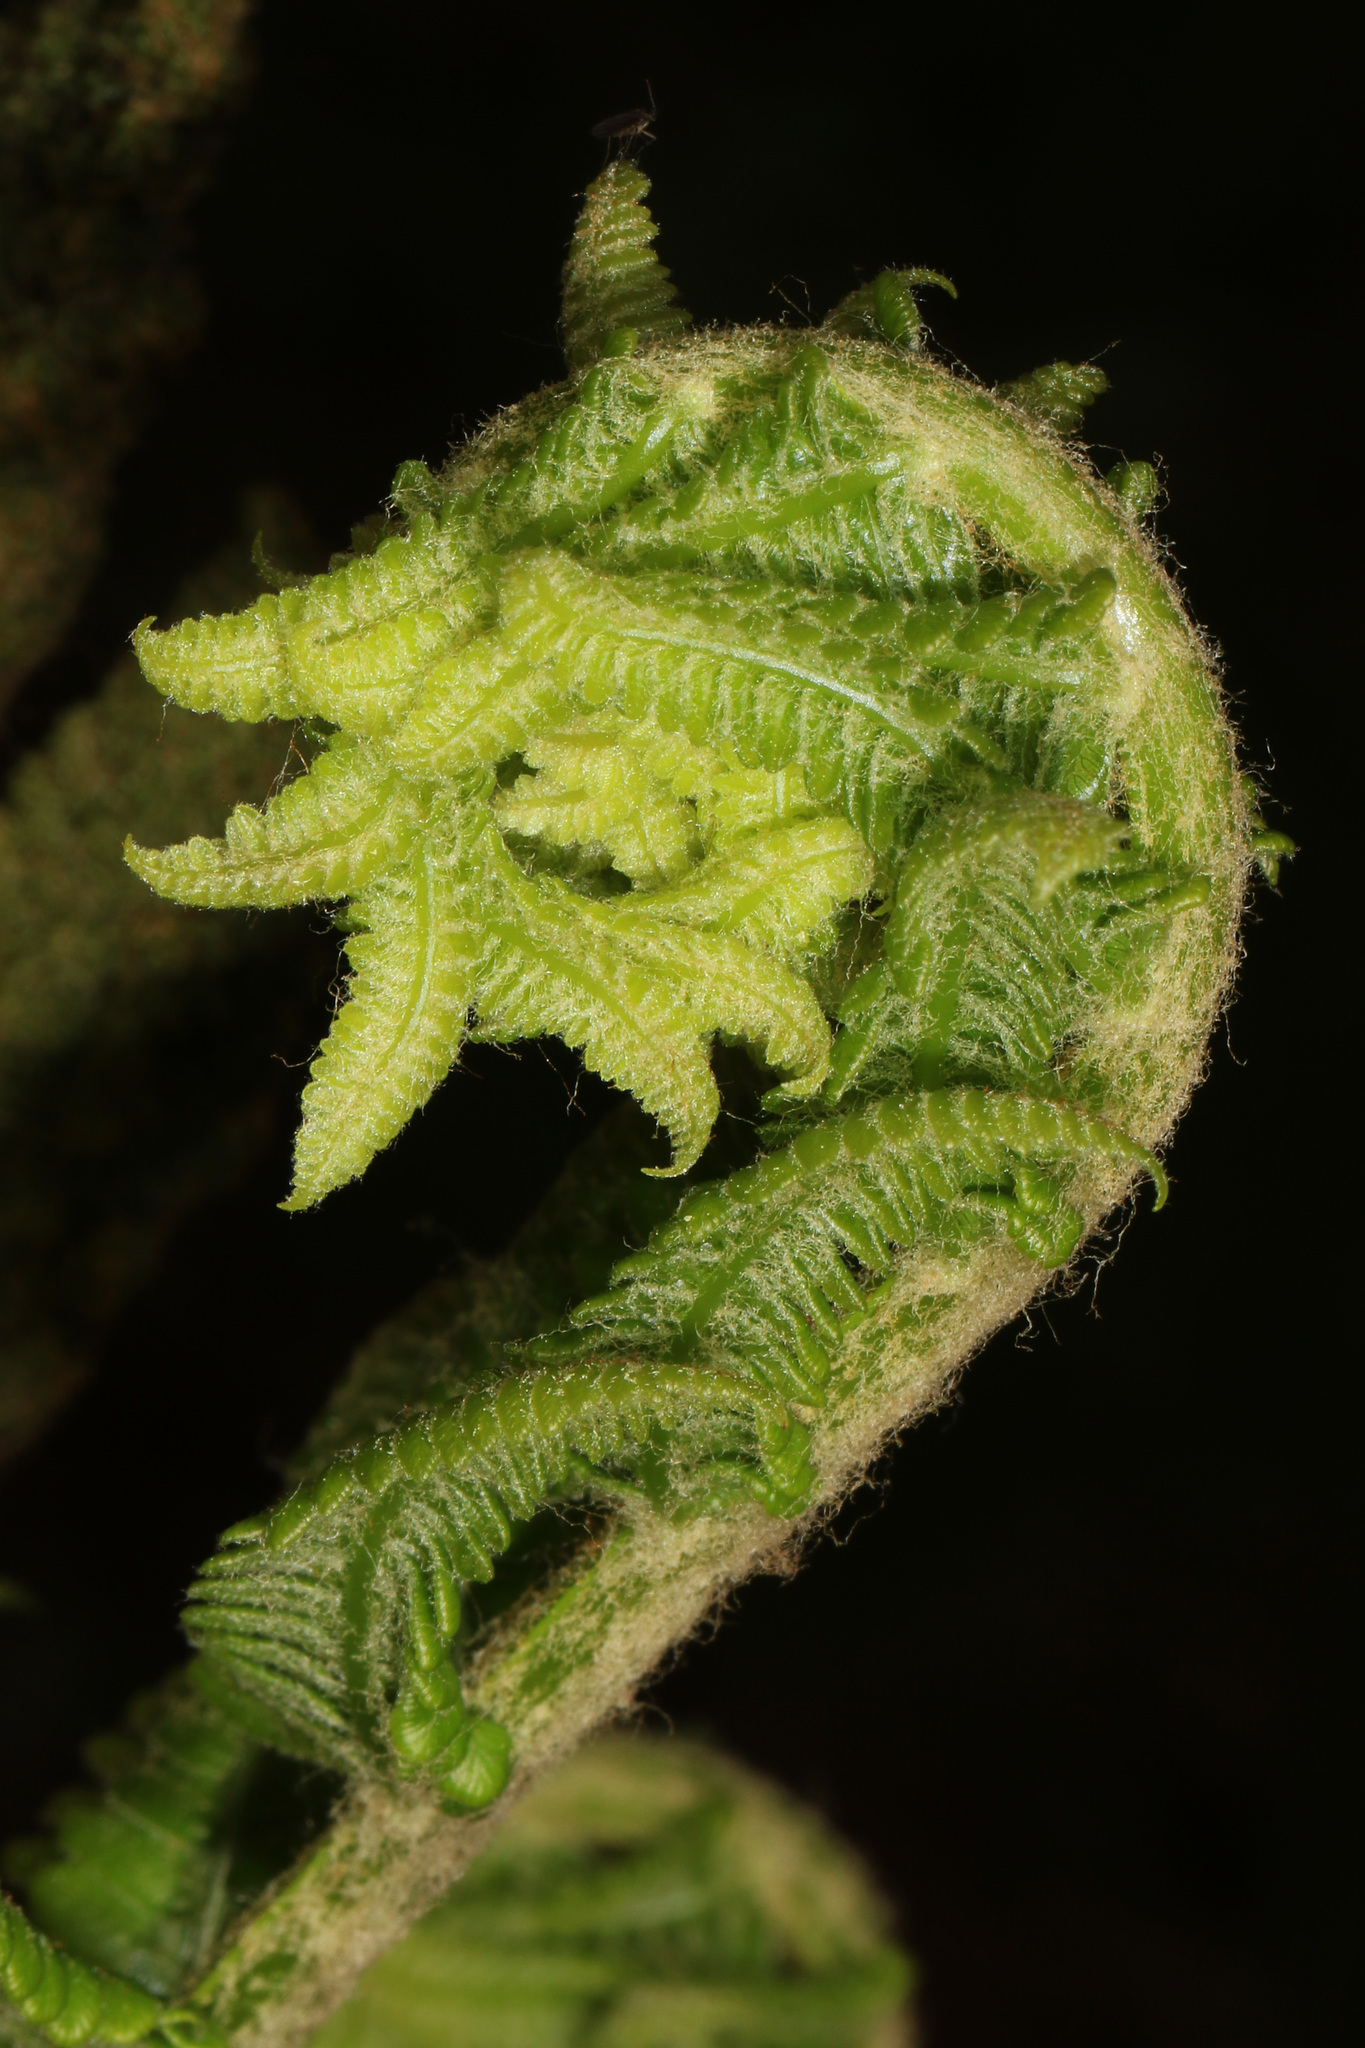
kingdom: Plantae
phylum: Tracheophyta
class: Polypodiopsida
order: Osmundales
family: Osmundaceae
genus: Osmundastrum
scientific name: Osmundastrum cinnamomeum
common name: Cinnamon fern
